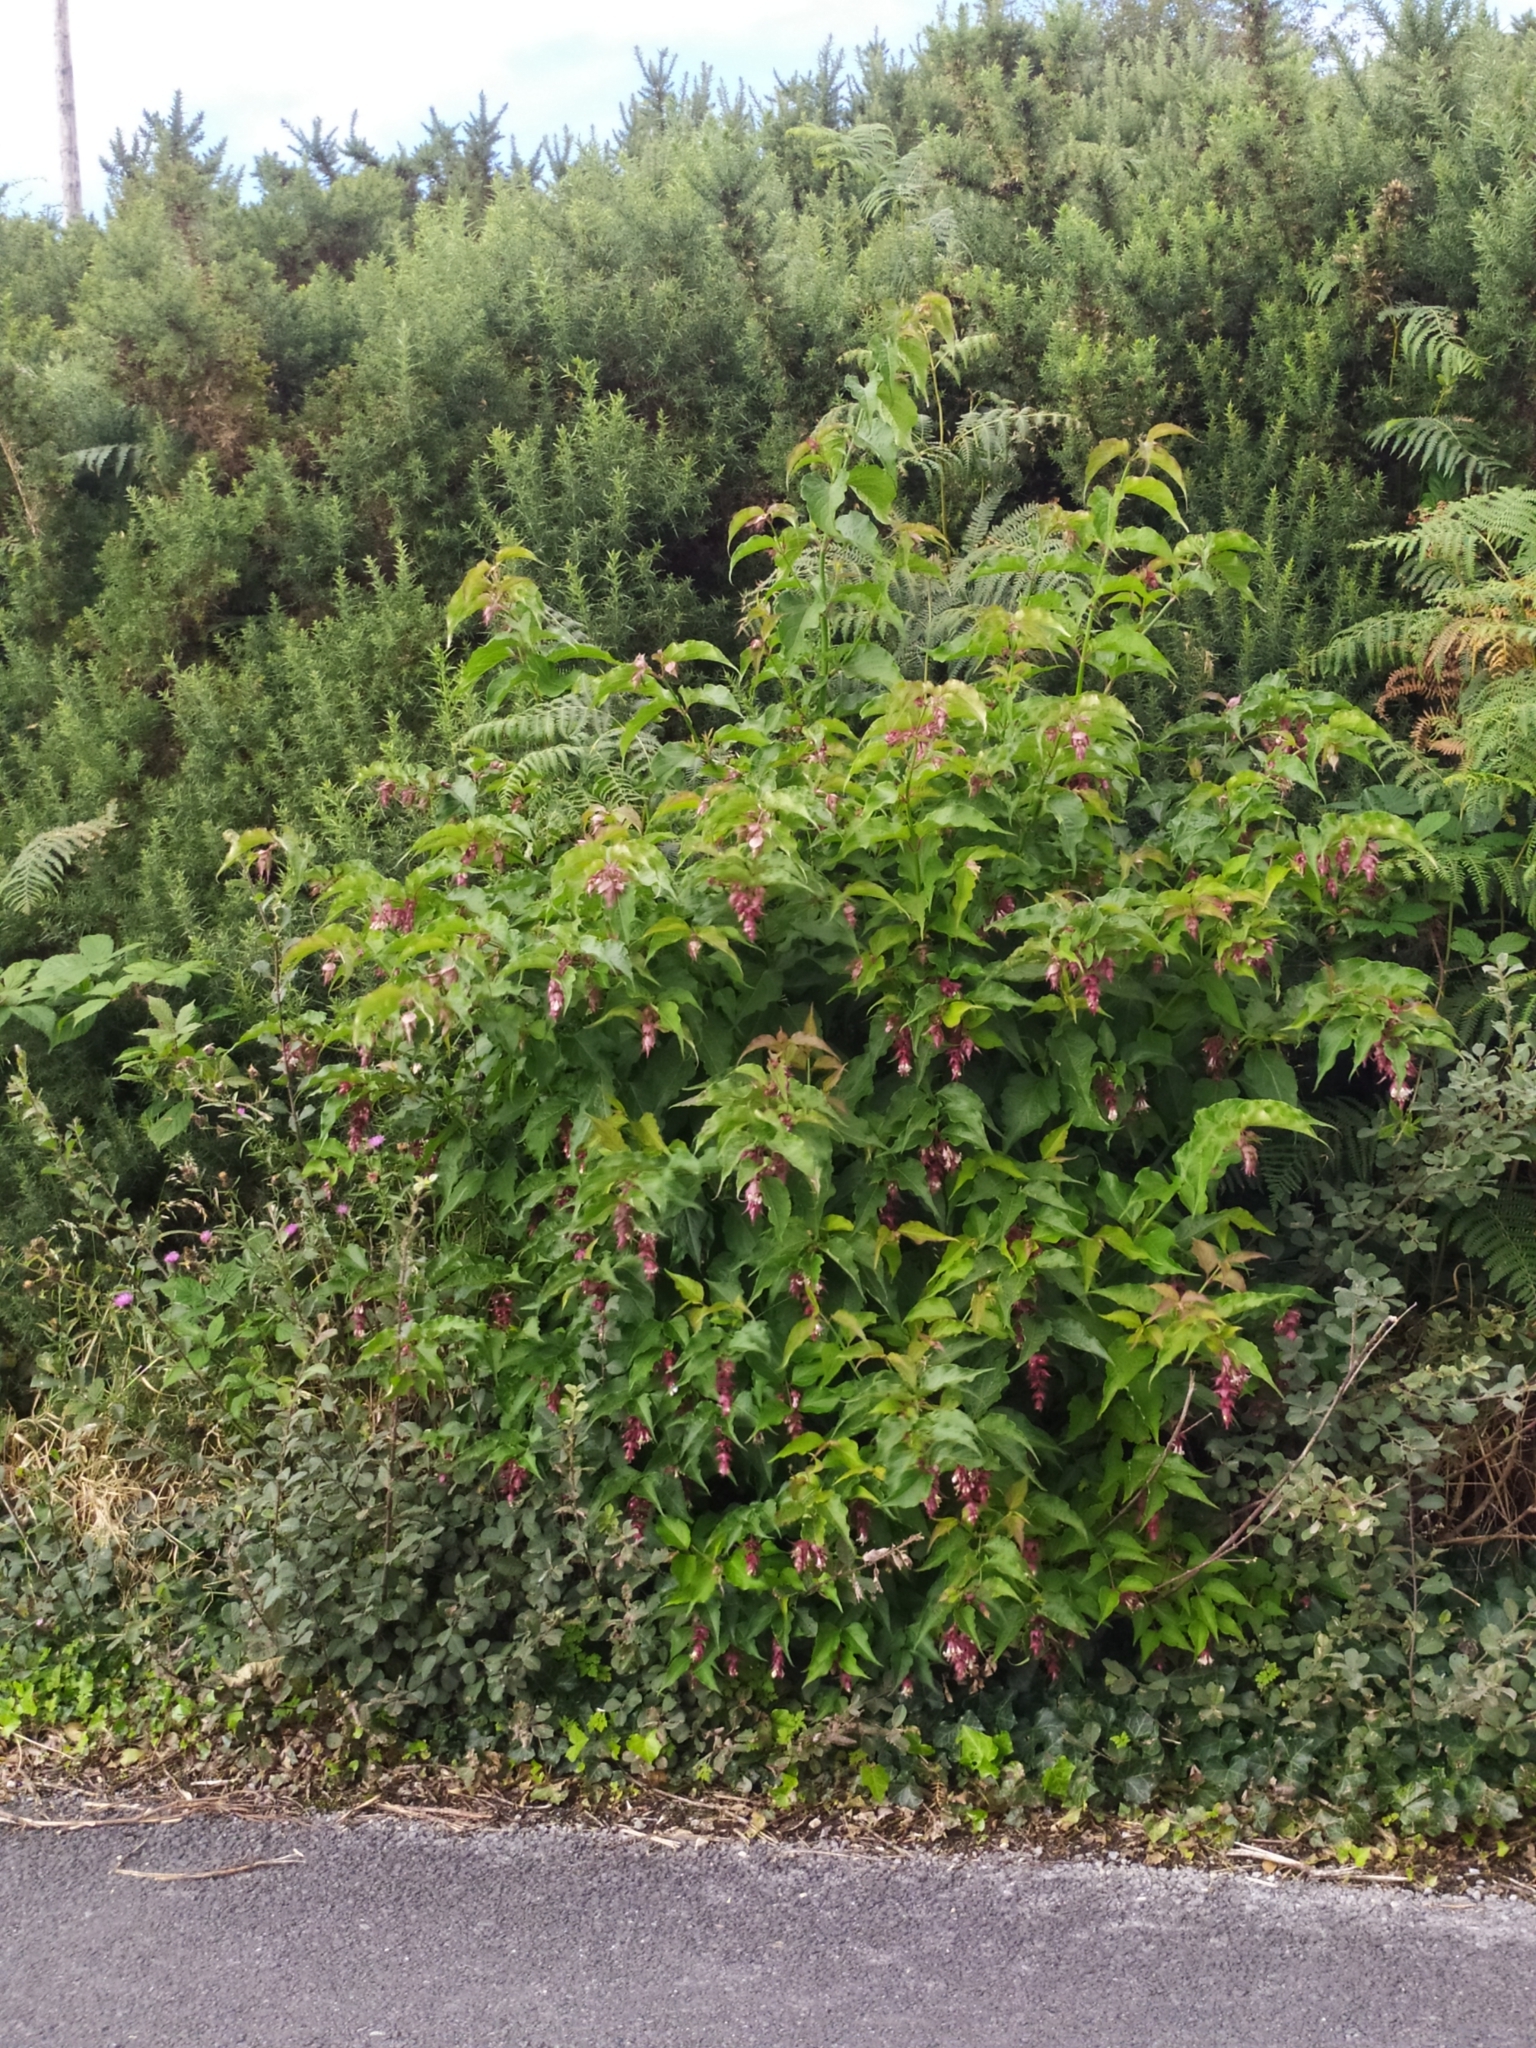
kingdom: Plantae
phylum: Tracheophyta
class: Magnoliopsida
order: Dipsacales
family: Caprifoliaceae
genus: Leycesteria
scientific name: Leycesteria formosa
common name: Himalayan honeysuckle
